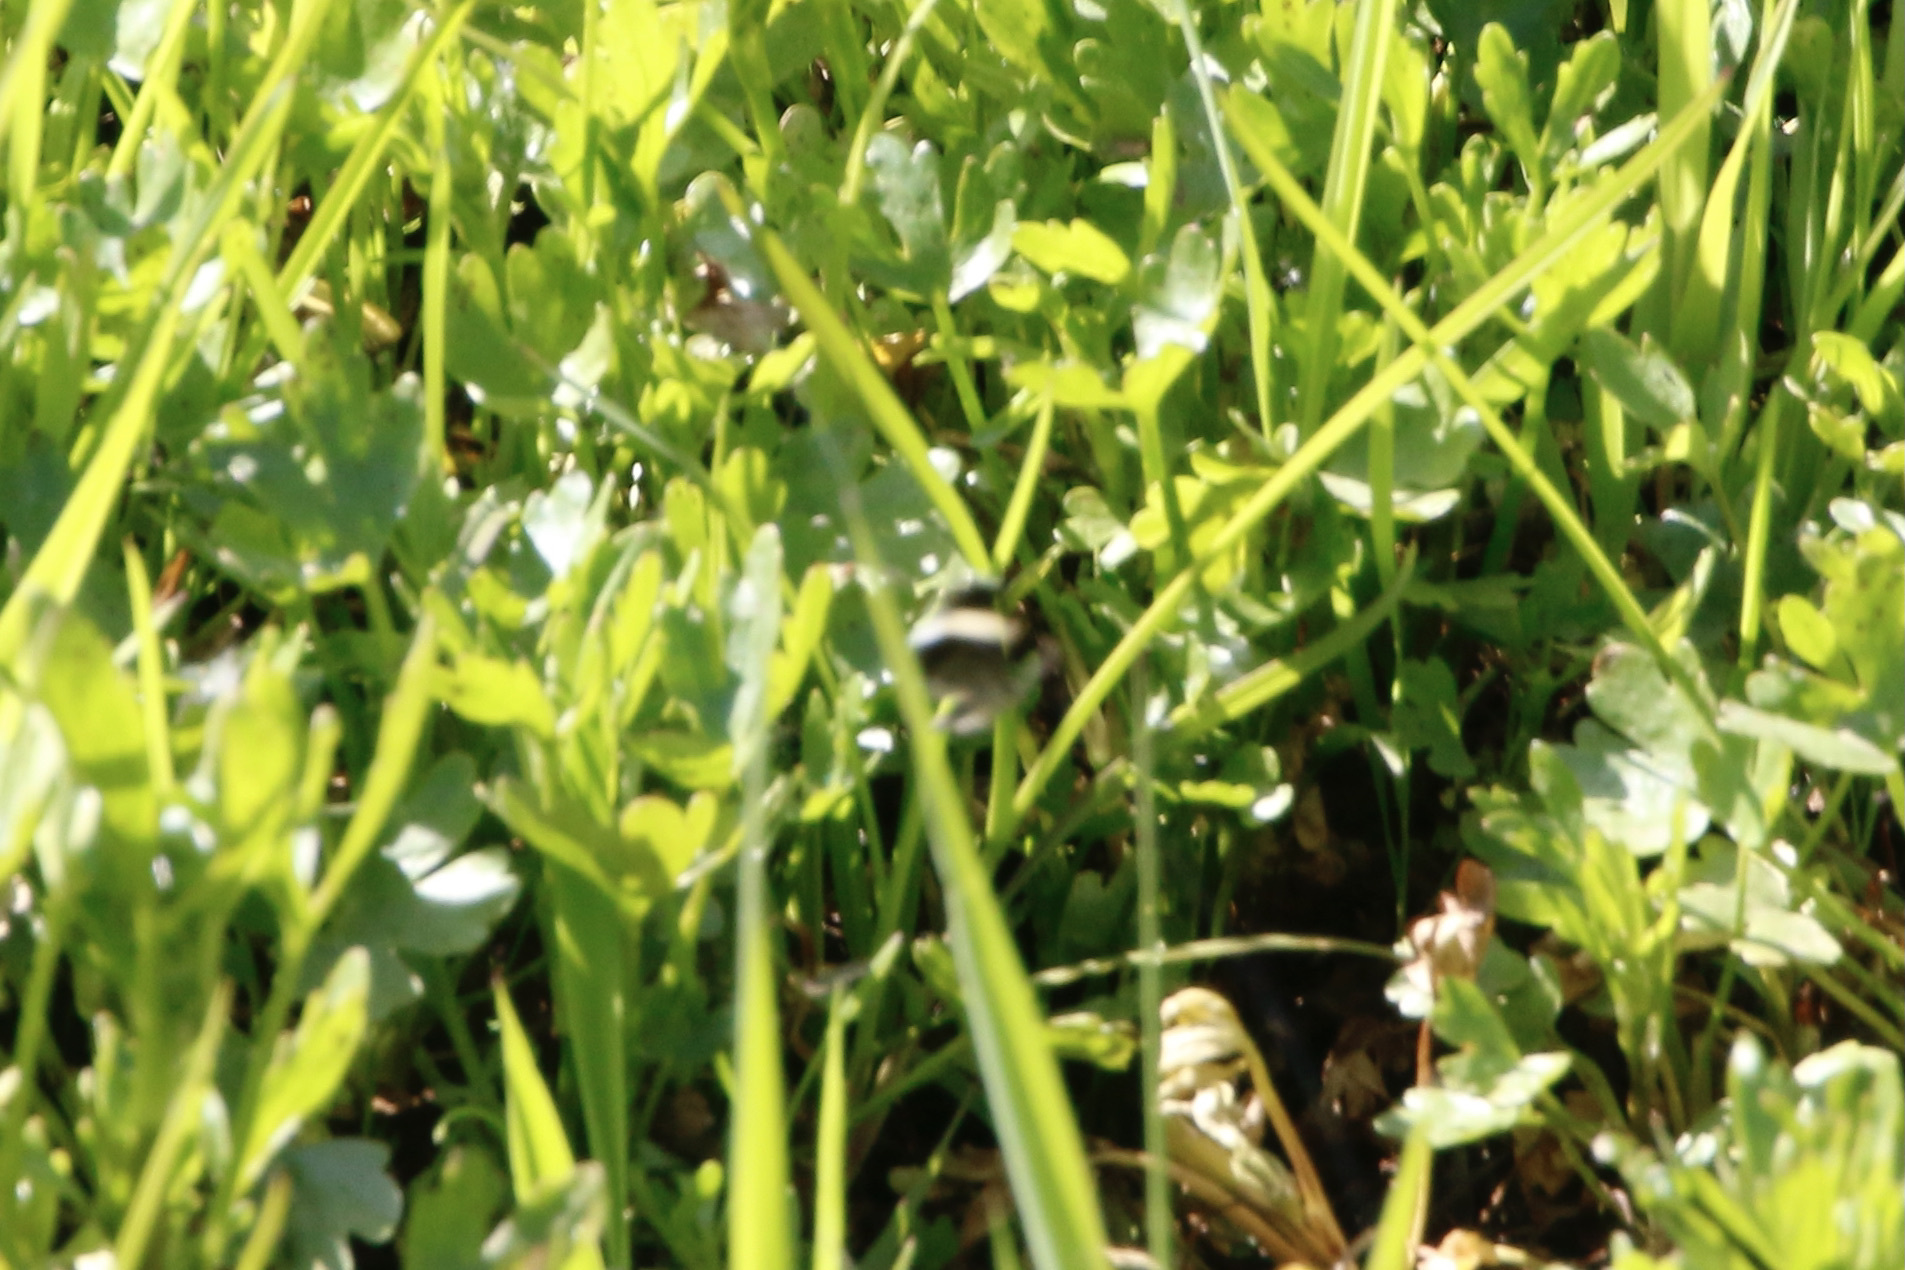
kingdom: Animalia
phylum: Arthropoda
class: Insecta
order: Lepidoptera
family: Geometridae
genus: Trichodezia
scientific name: Trichodezia albovittata
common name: White striped black
